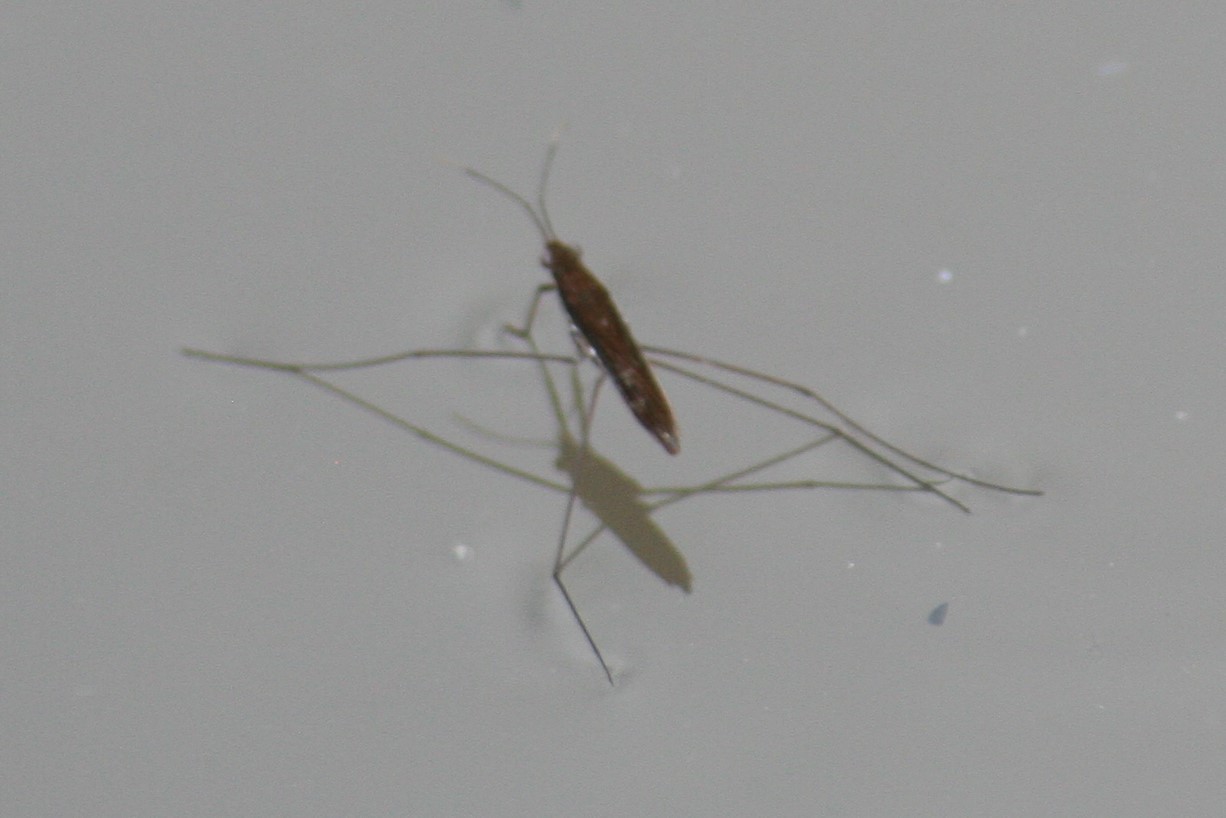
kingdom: Animalia
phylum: Arthropoda
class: Insecta
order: Hemiptera
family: Gerridae
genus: Limnoporus
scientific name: Limnoporus dissortis
